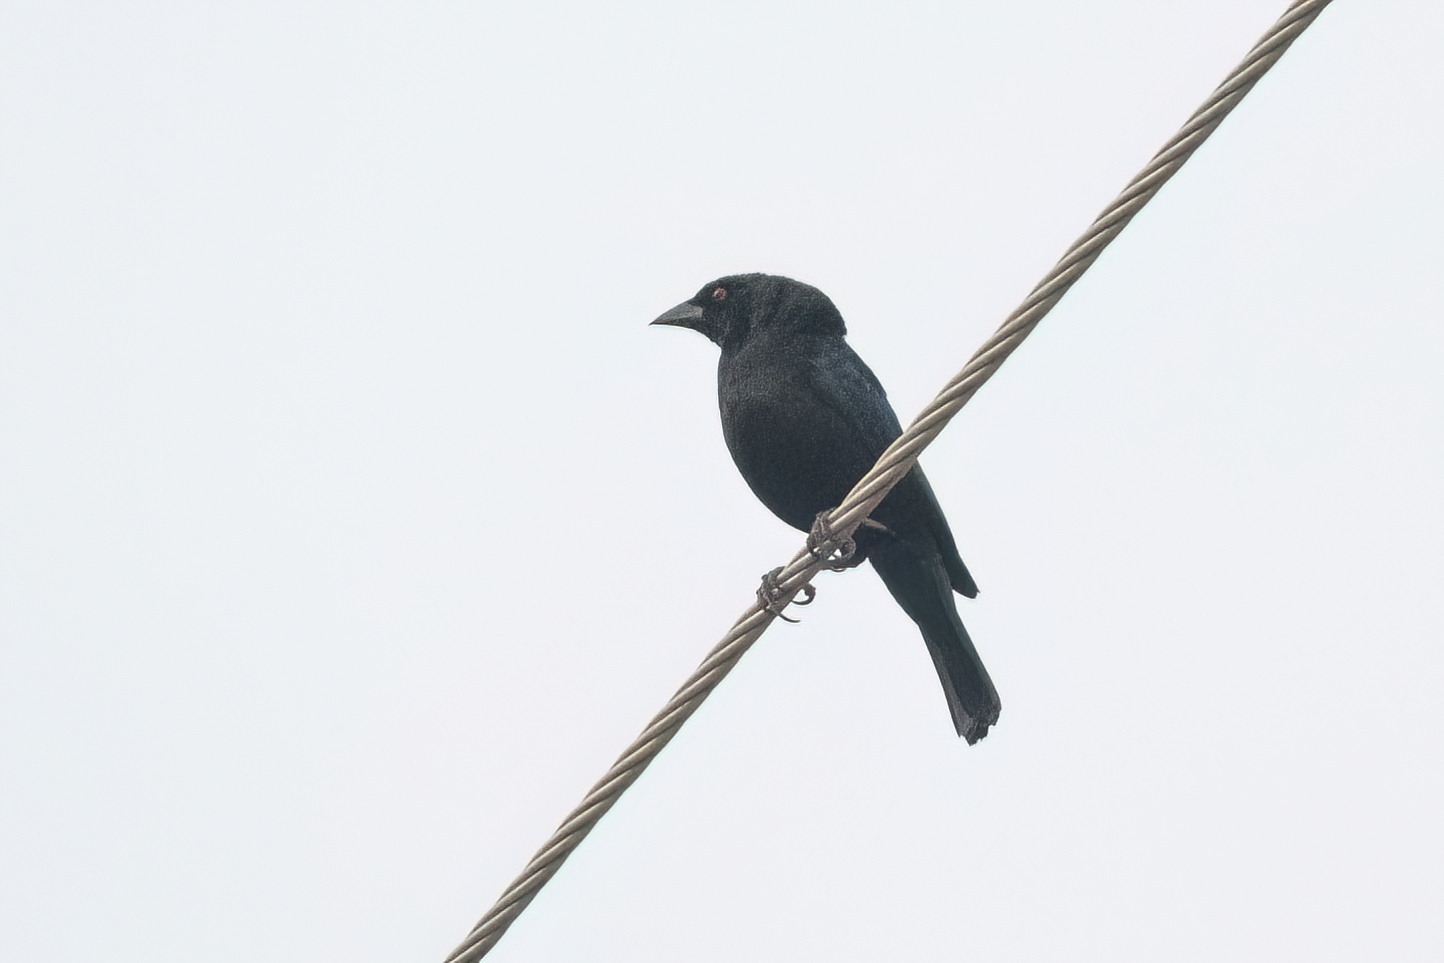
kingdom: Animalia
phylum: Chordata
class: Aves
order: Passeriformes
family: Icteridae
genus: Molothrus
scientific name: Molothrus aeneus
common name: Bronzed cowbird
